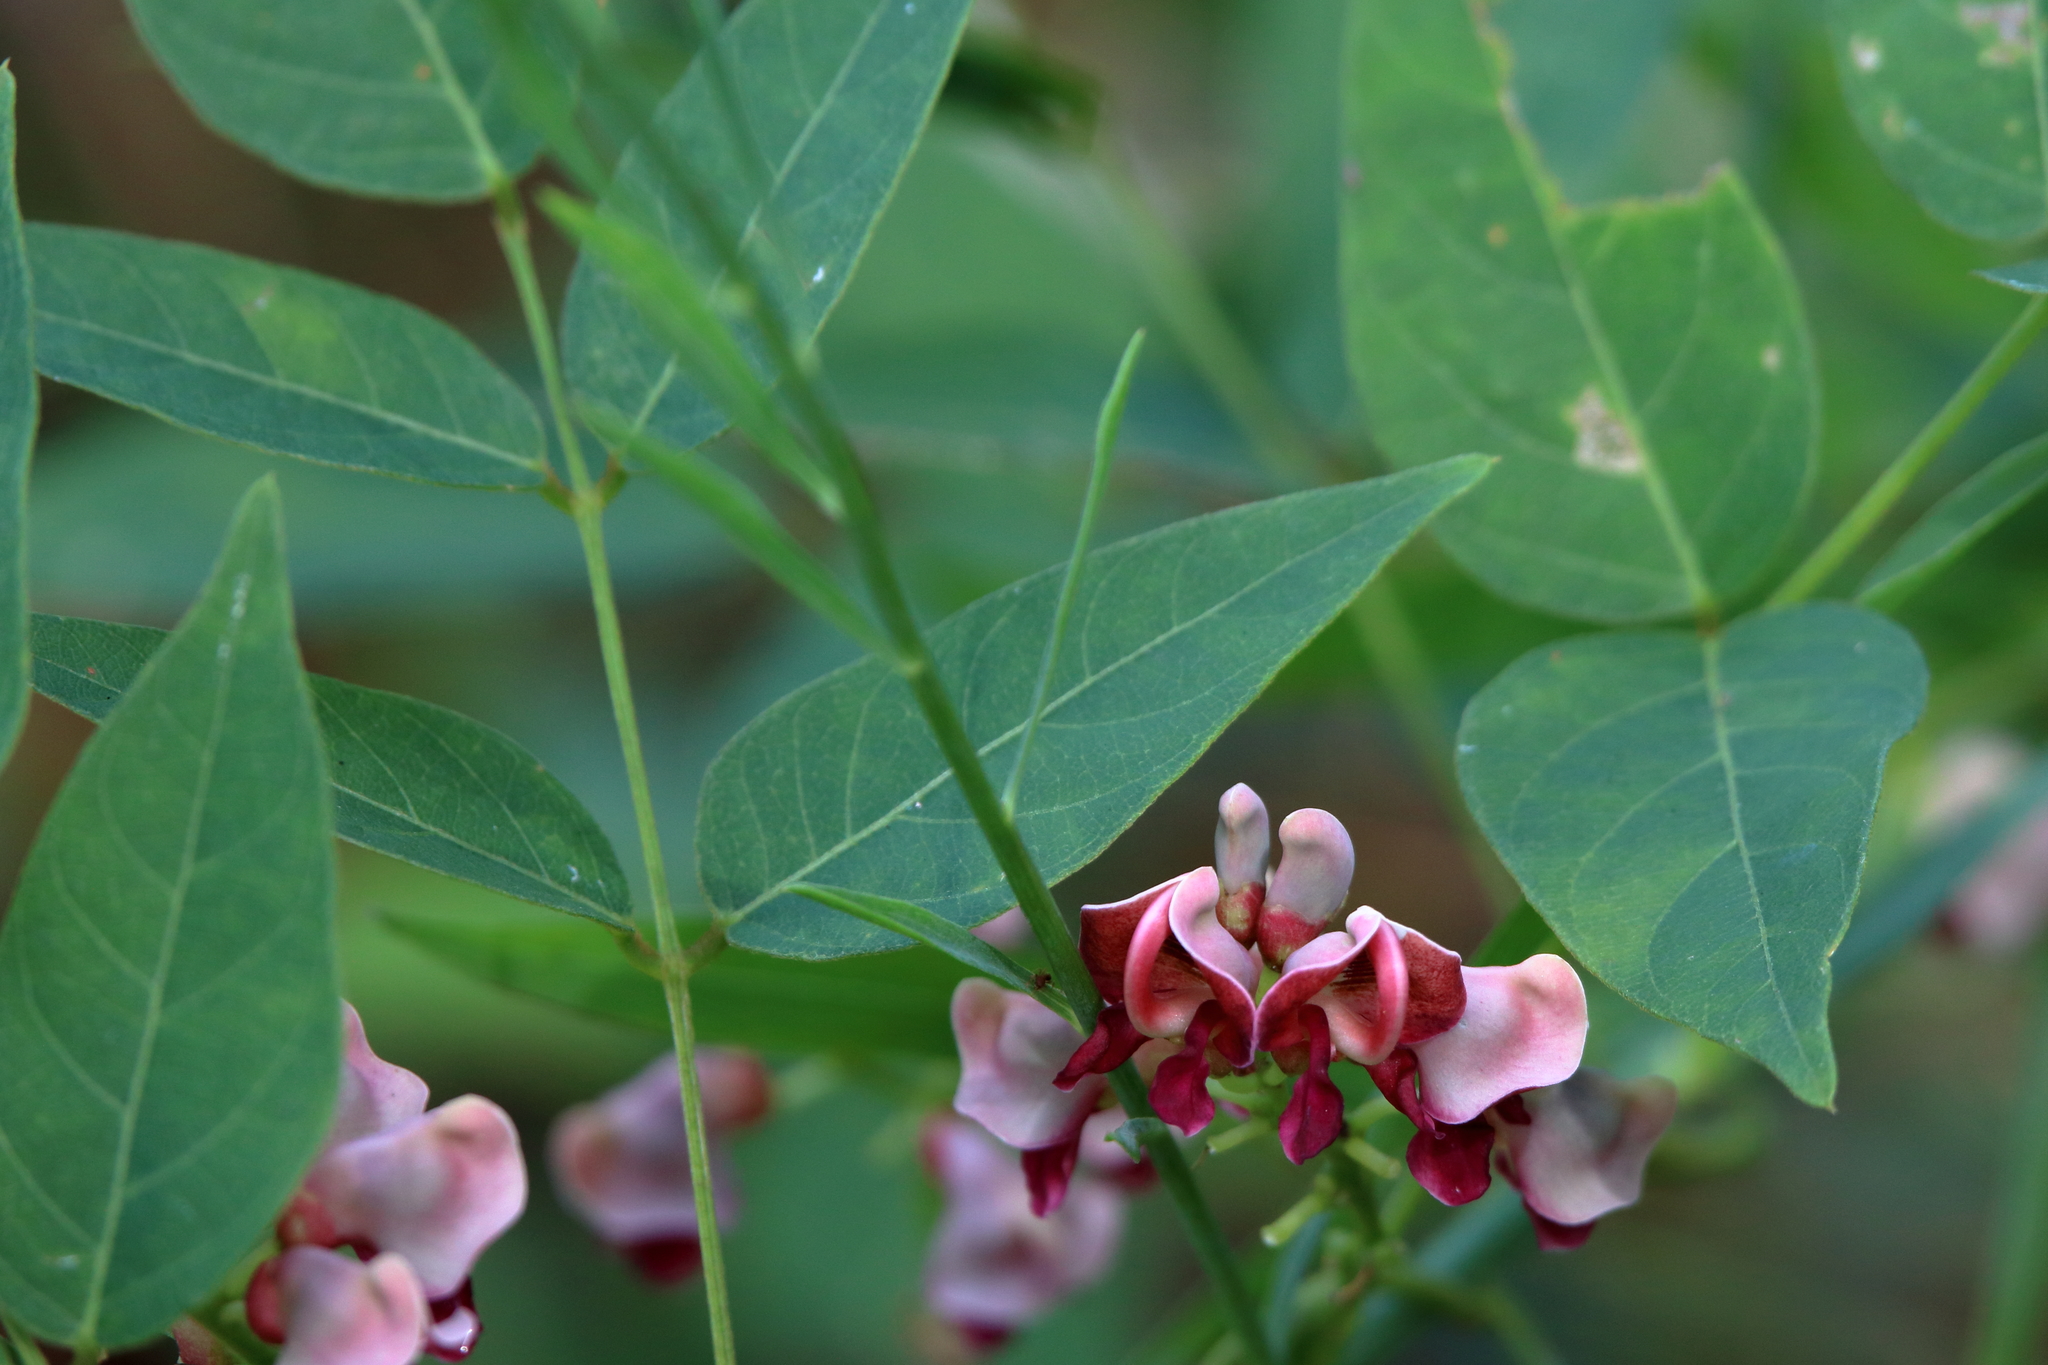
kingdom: Plantae
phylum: Tracheophyta
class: Magnoliopsida
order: Fabales
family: Fabaceae
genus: Apios
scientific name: Apios americana
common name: American potato-bean
